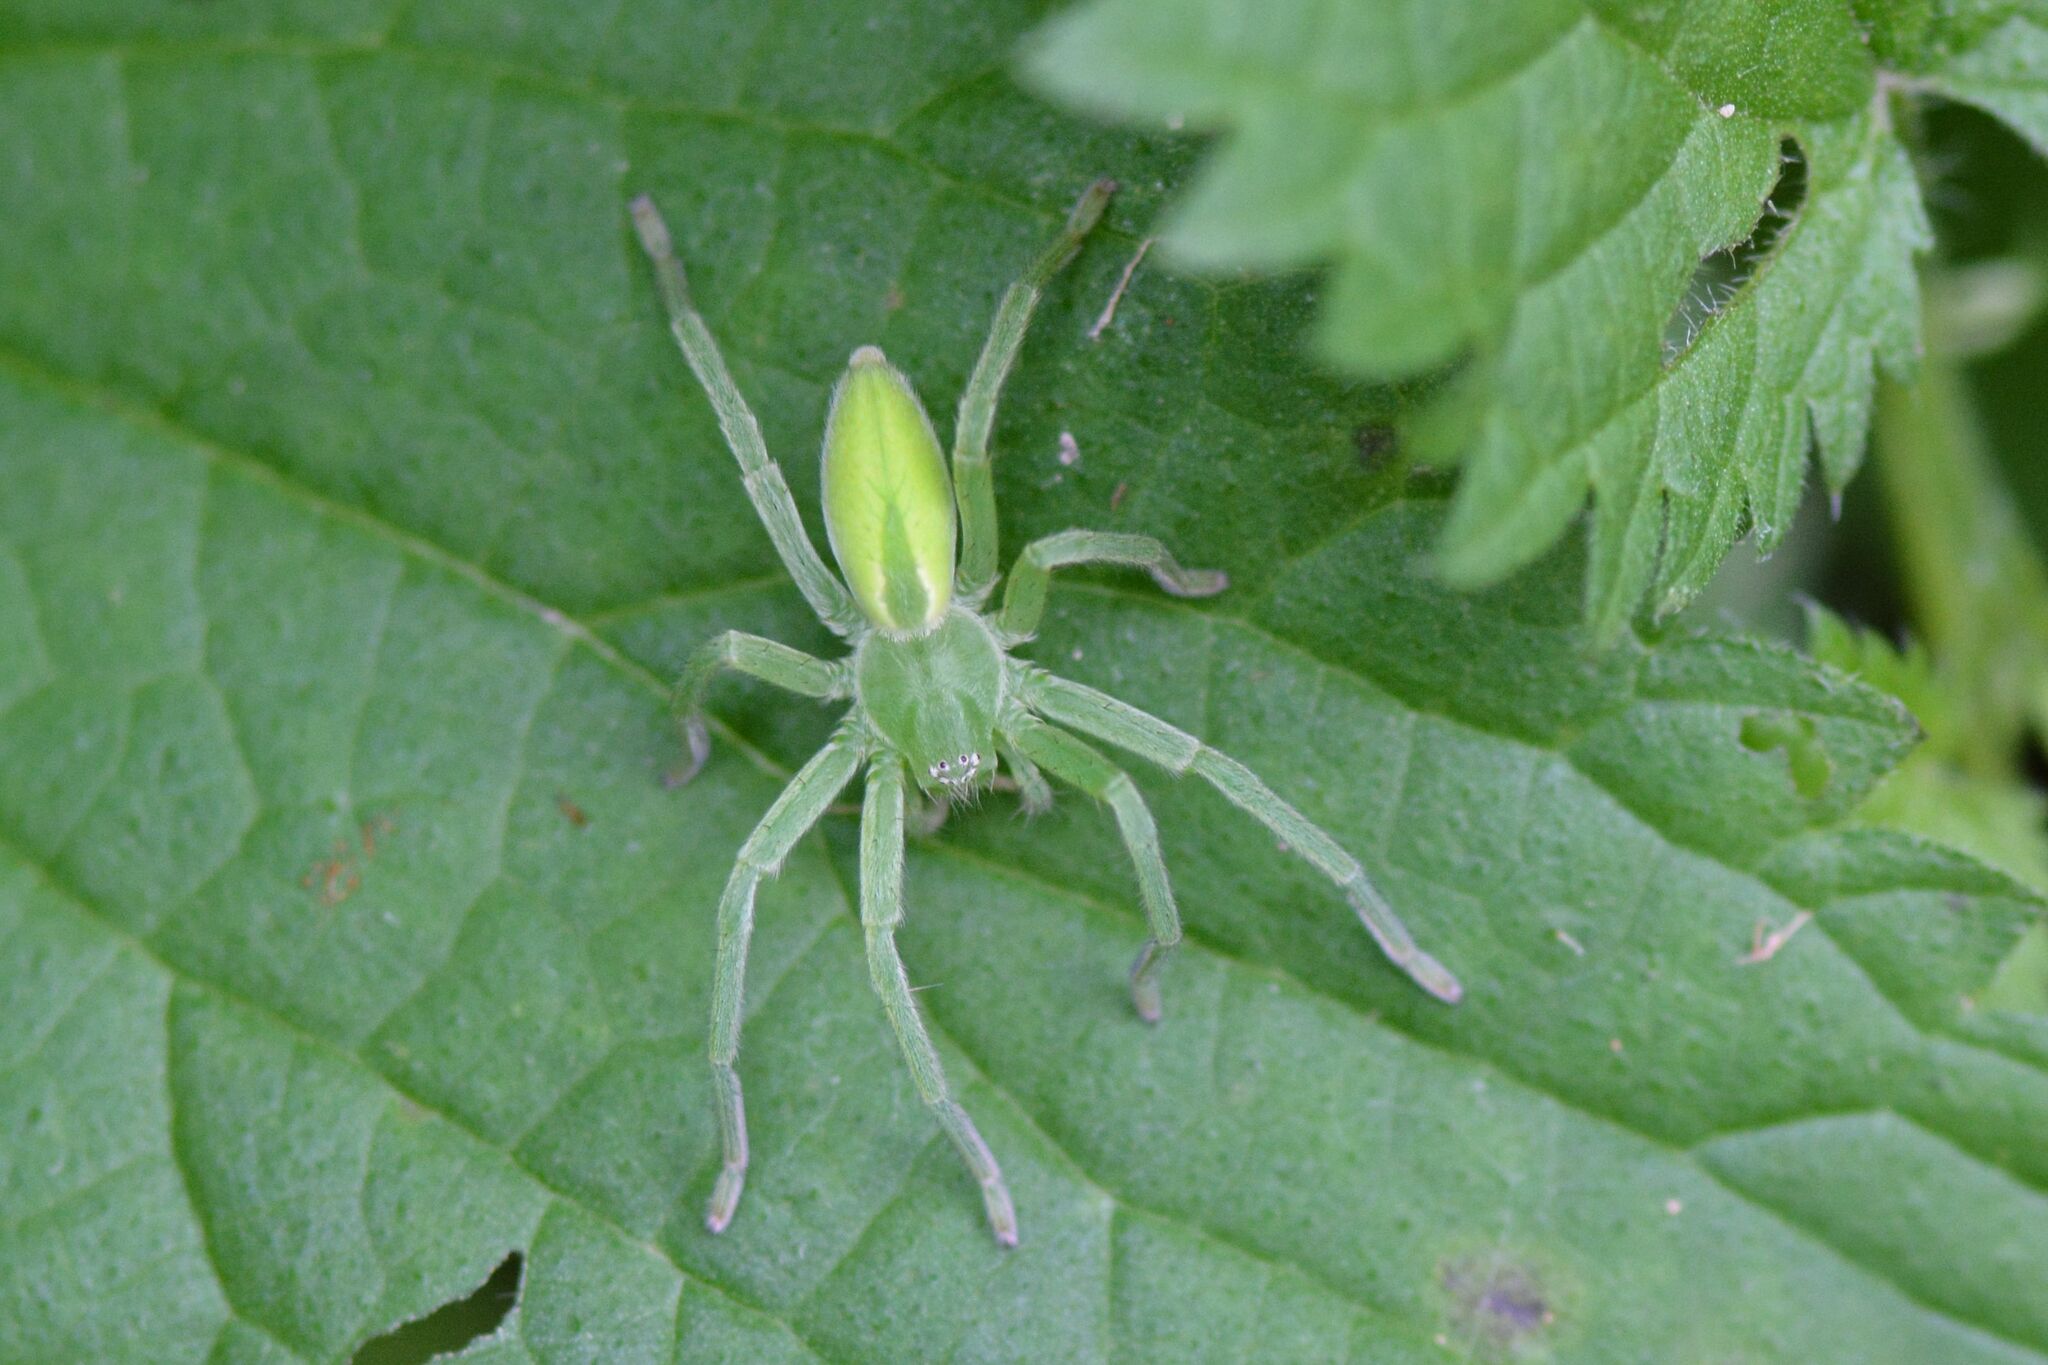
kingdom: Animalia
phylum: Arthropoda
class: Arachnida
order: Araneae
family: Sparassidae
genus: Micrommata
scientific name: Micrommata virescens
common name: Green spider
